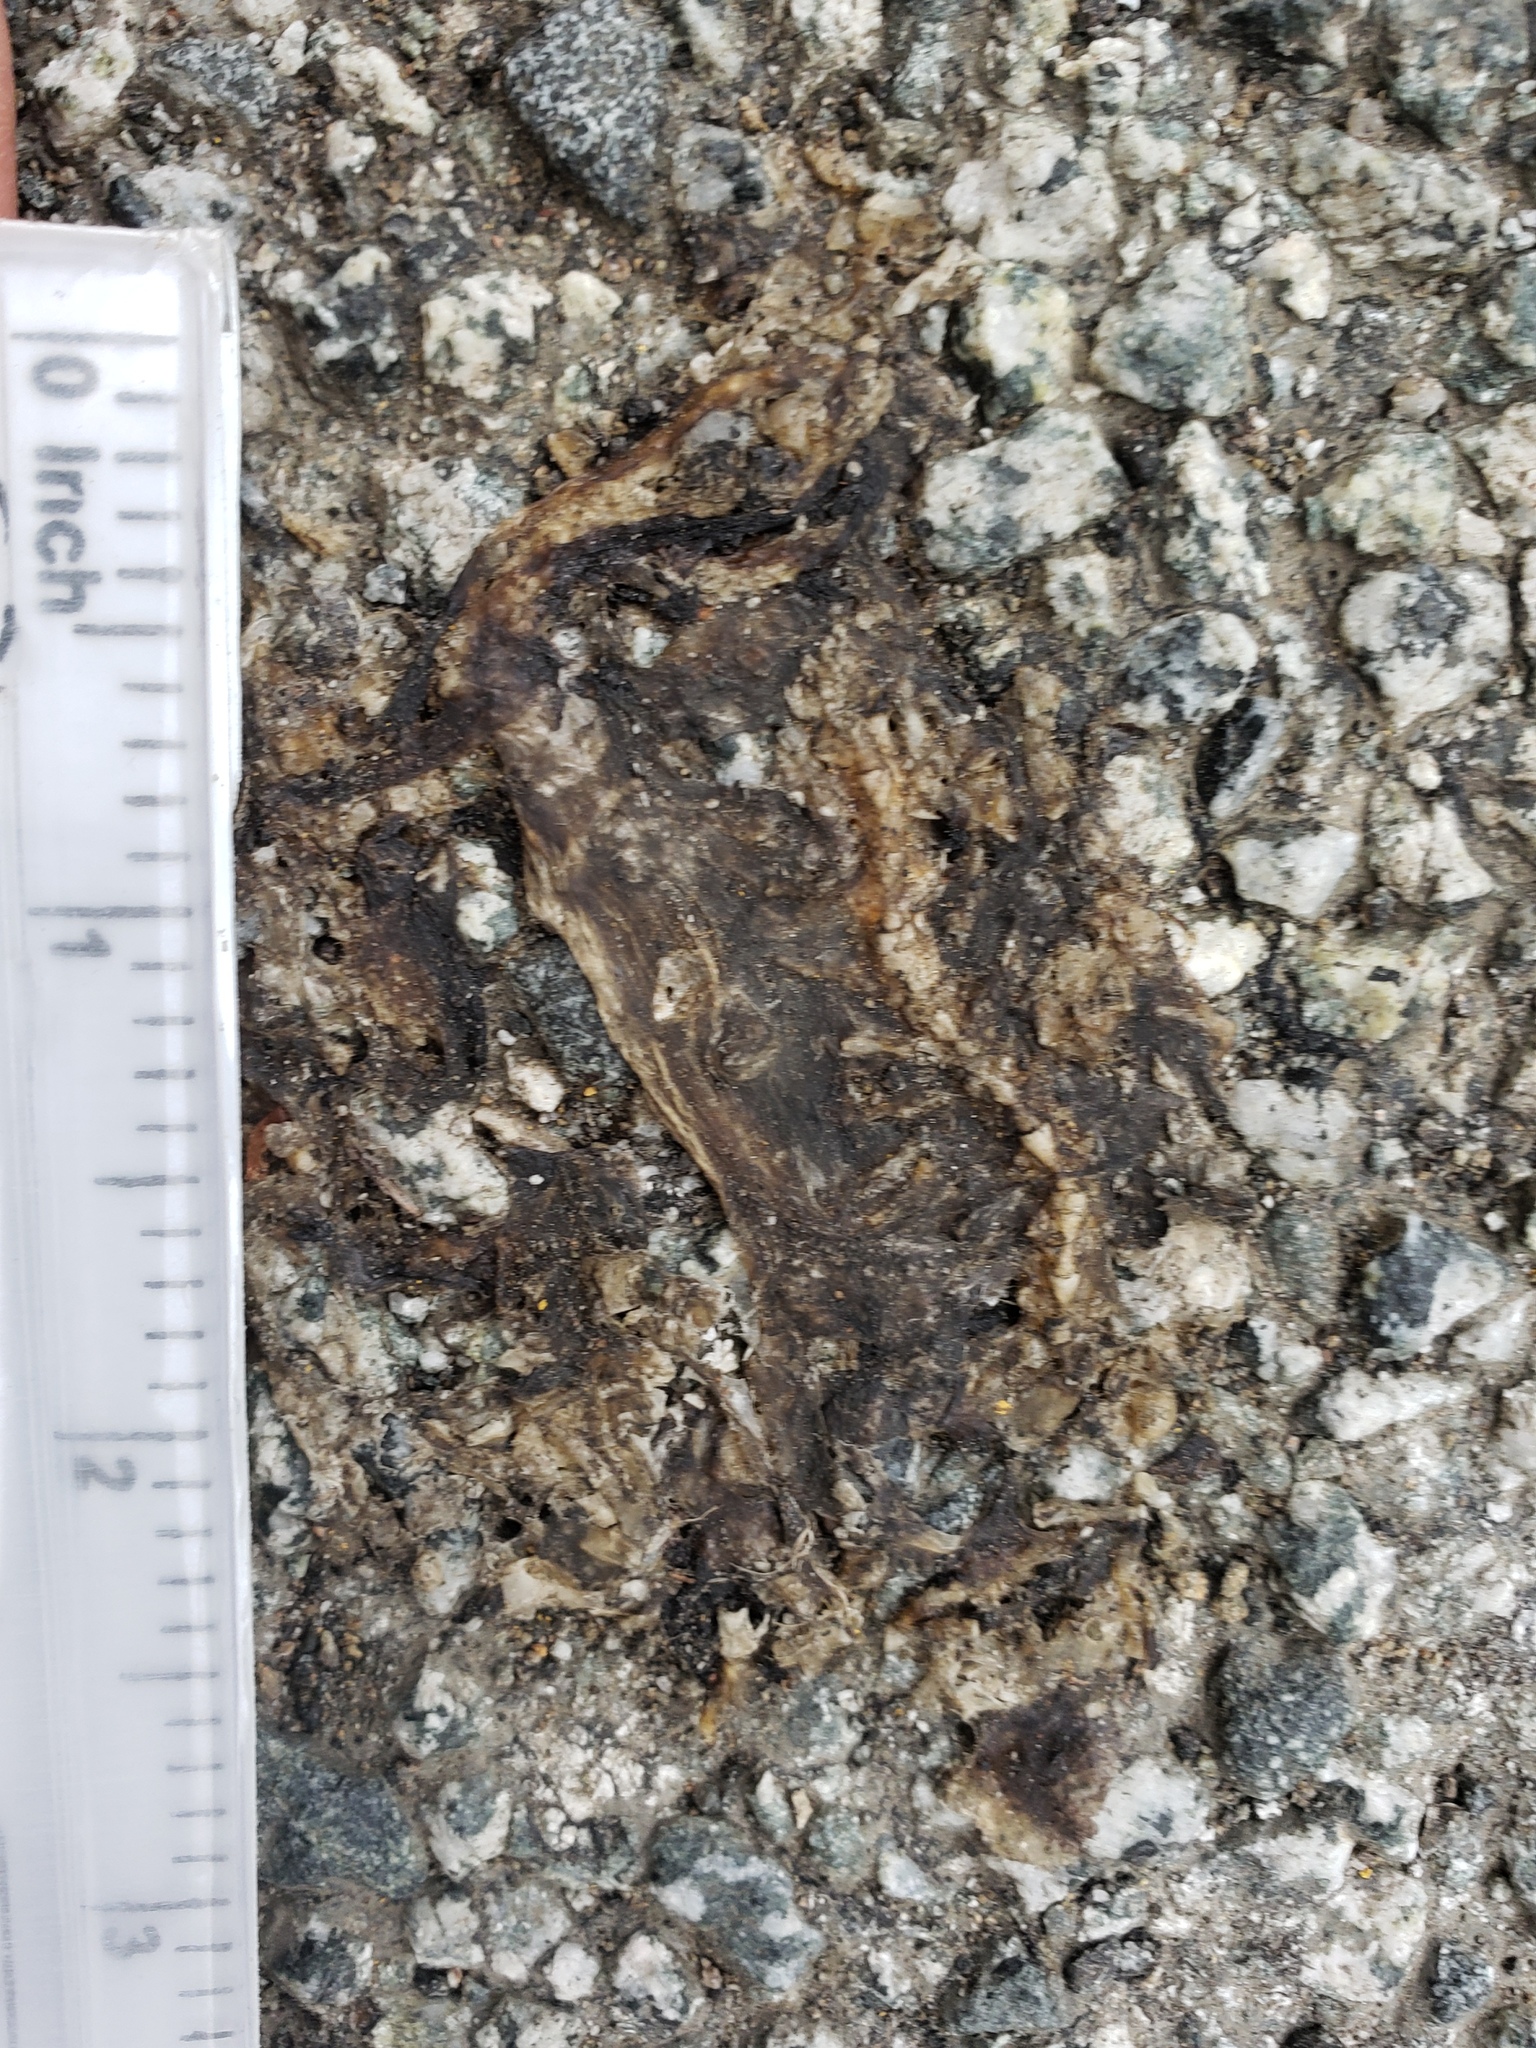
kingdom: Animalia
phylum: Chordata
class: Amphibia
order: Caudata
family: Salamandridae
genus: Taricha
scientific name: Taricha
